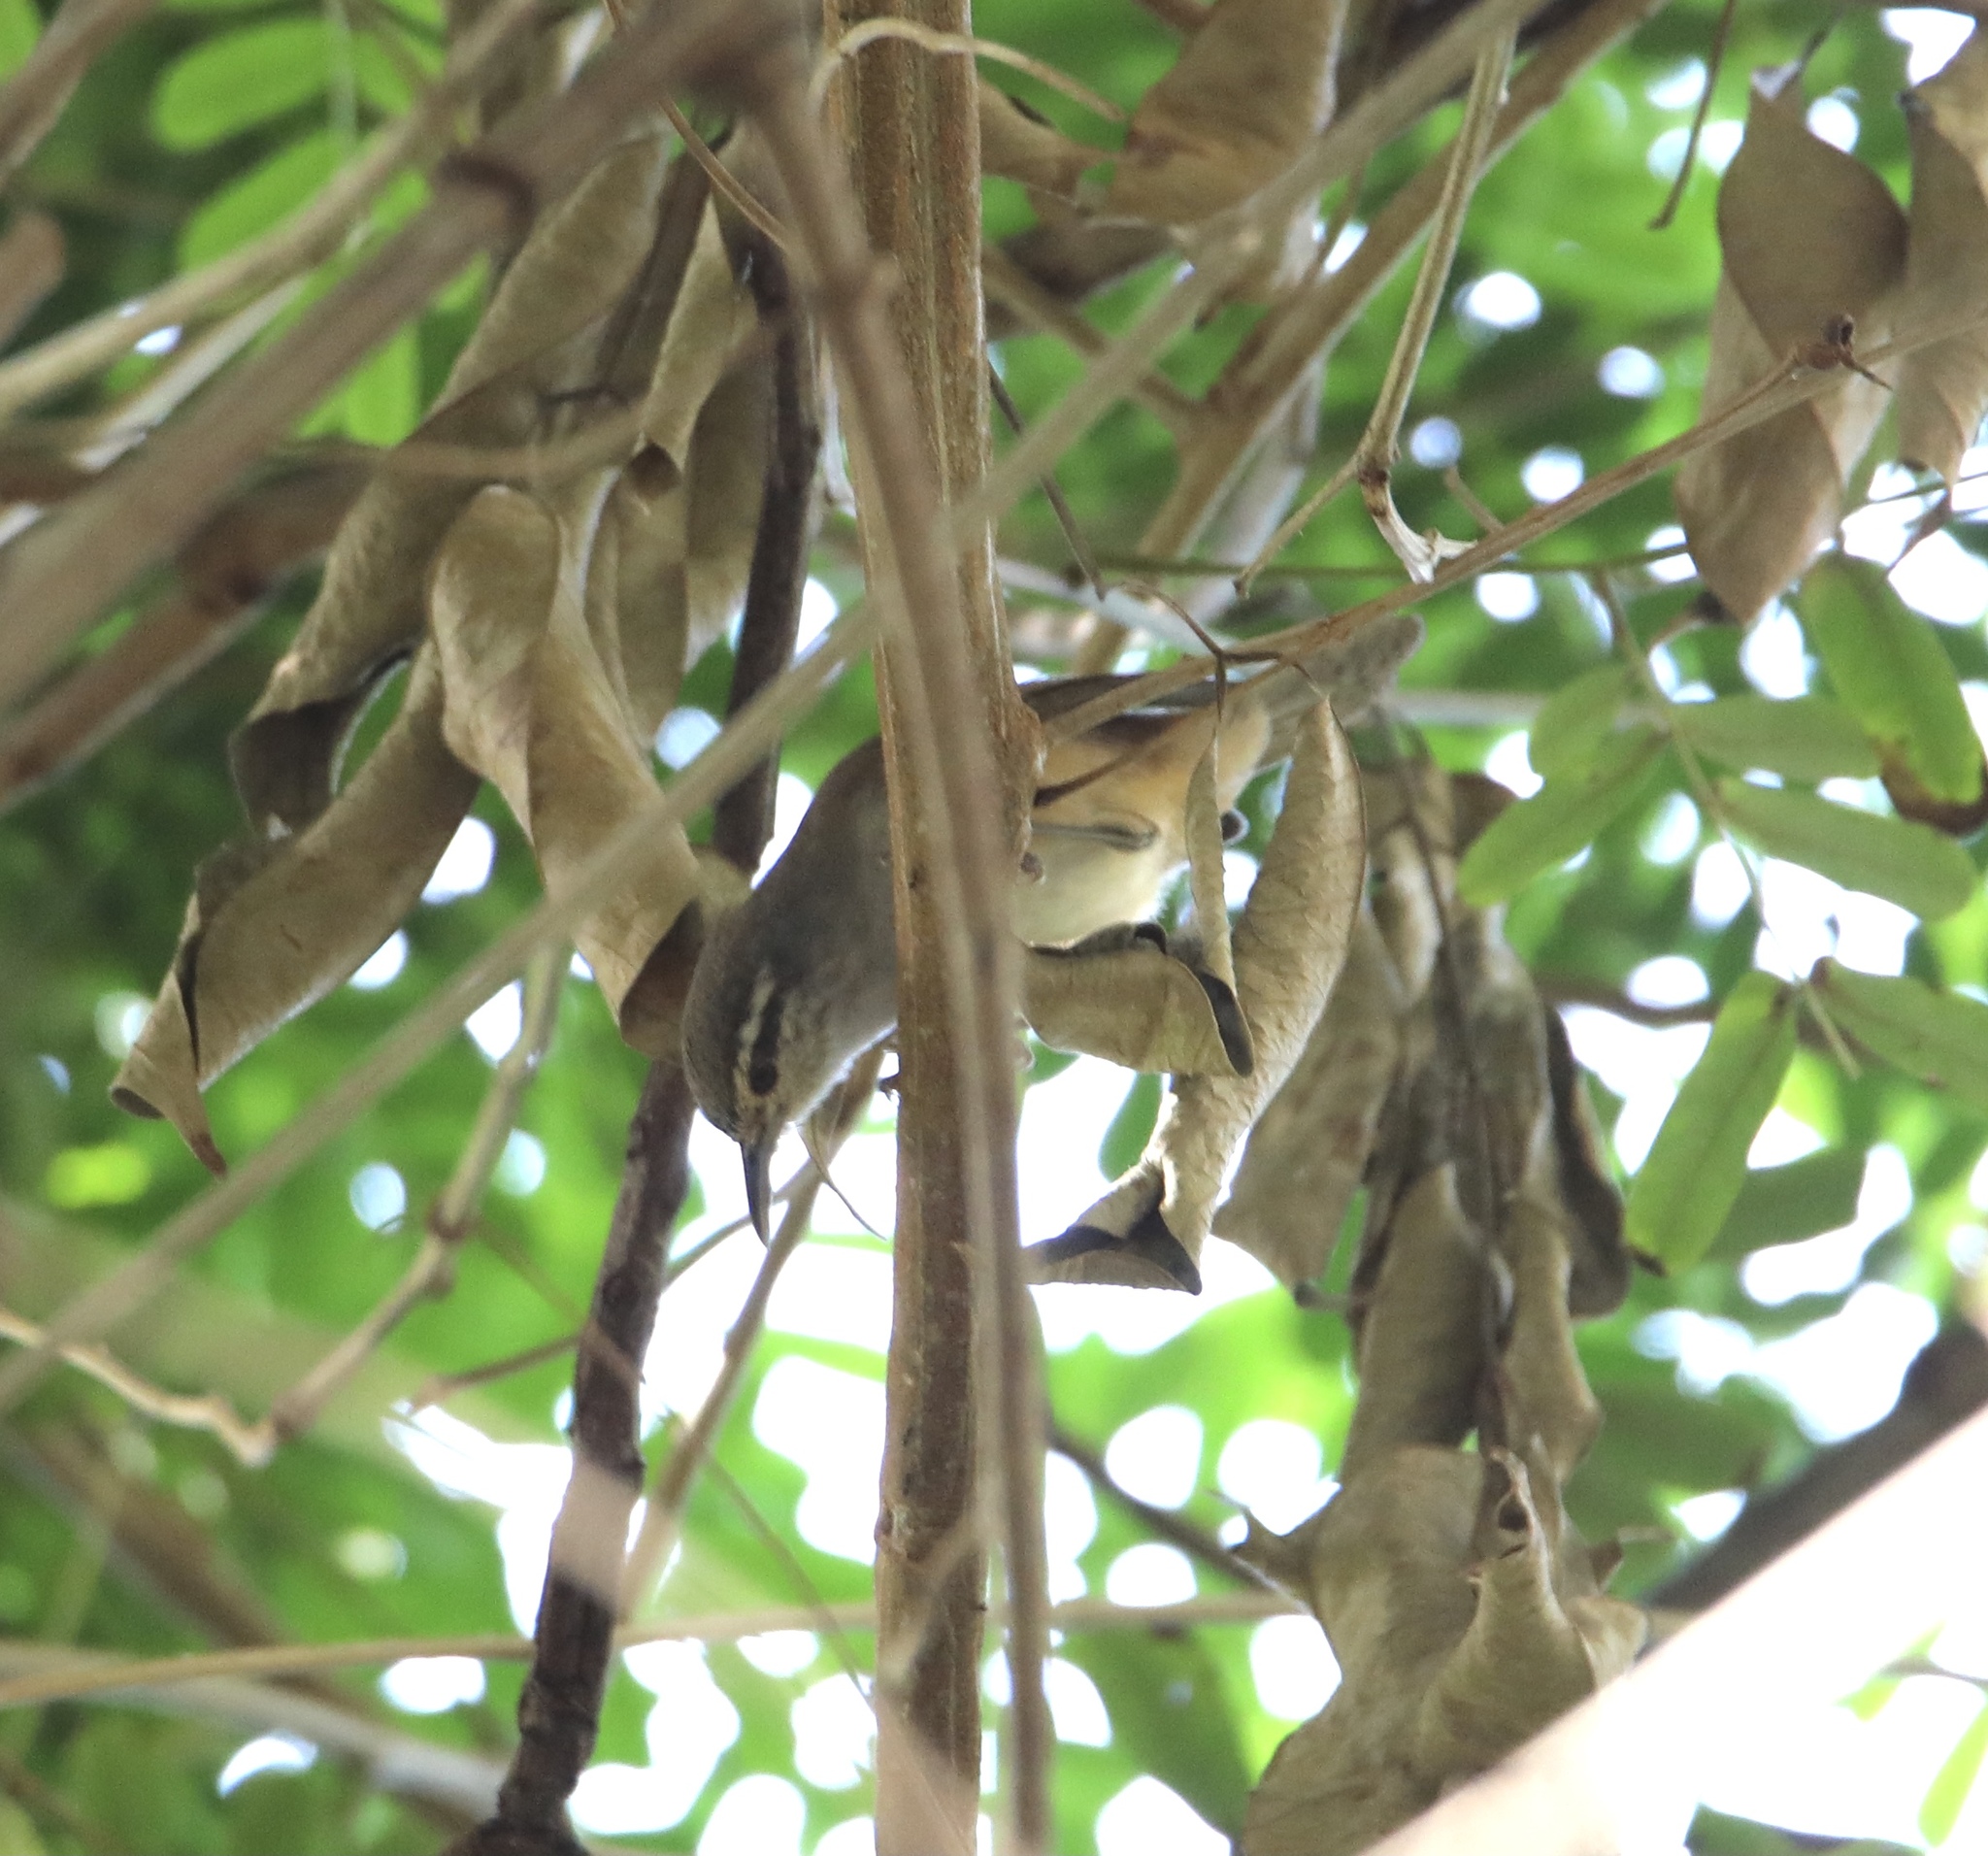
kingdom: Animalia
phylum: Chordata
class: Aves
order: Passeriformes
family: Troglodytidae
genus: Cantorchilus
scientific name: Cantorchilus modestus
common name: Cabanis's wren
